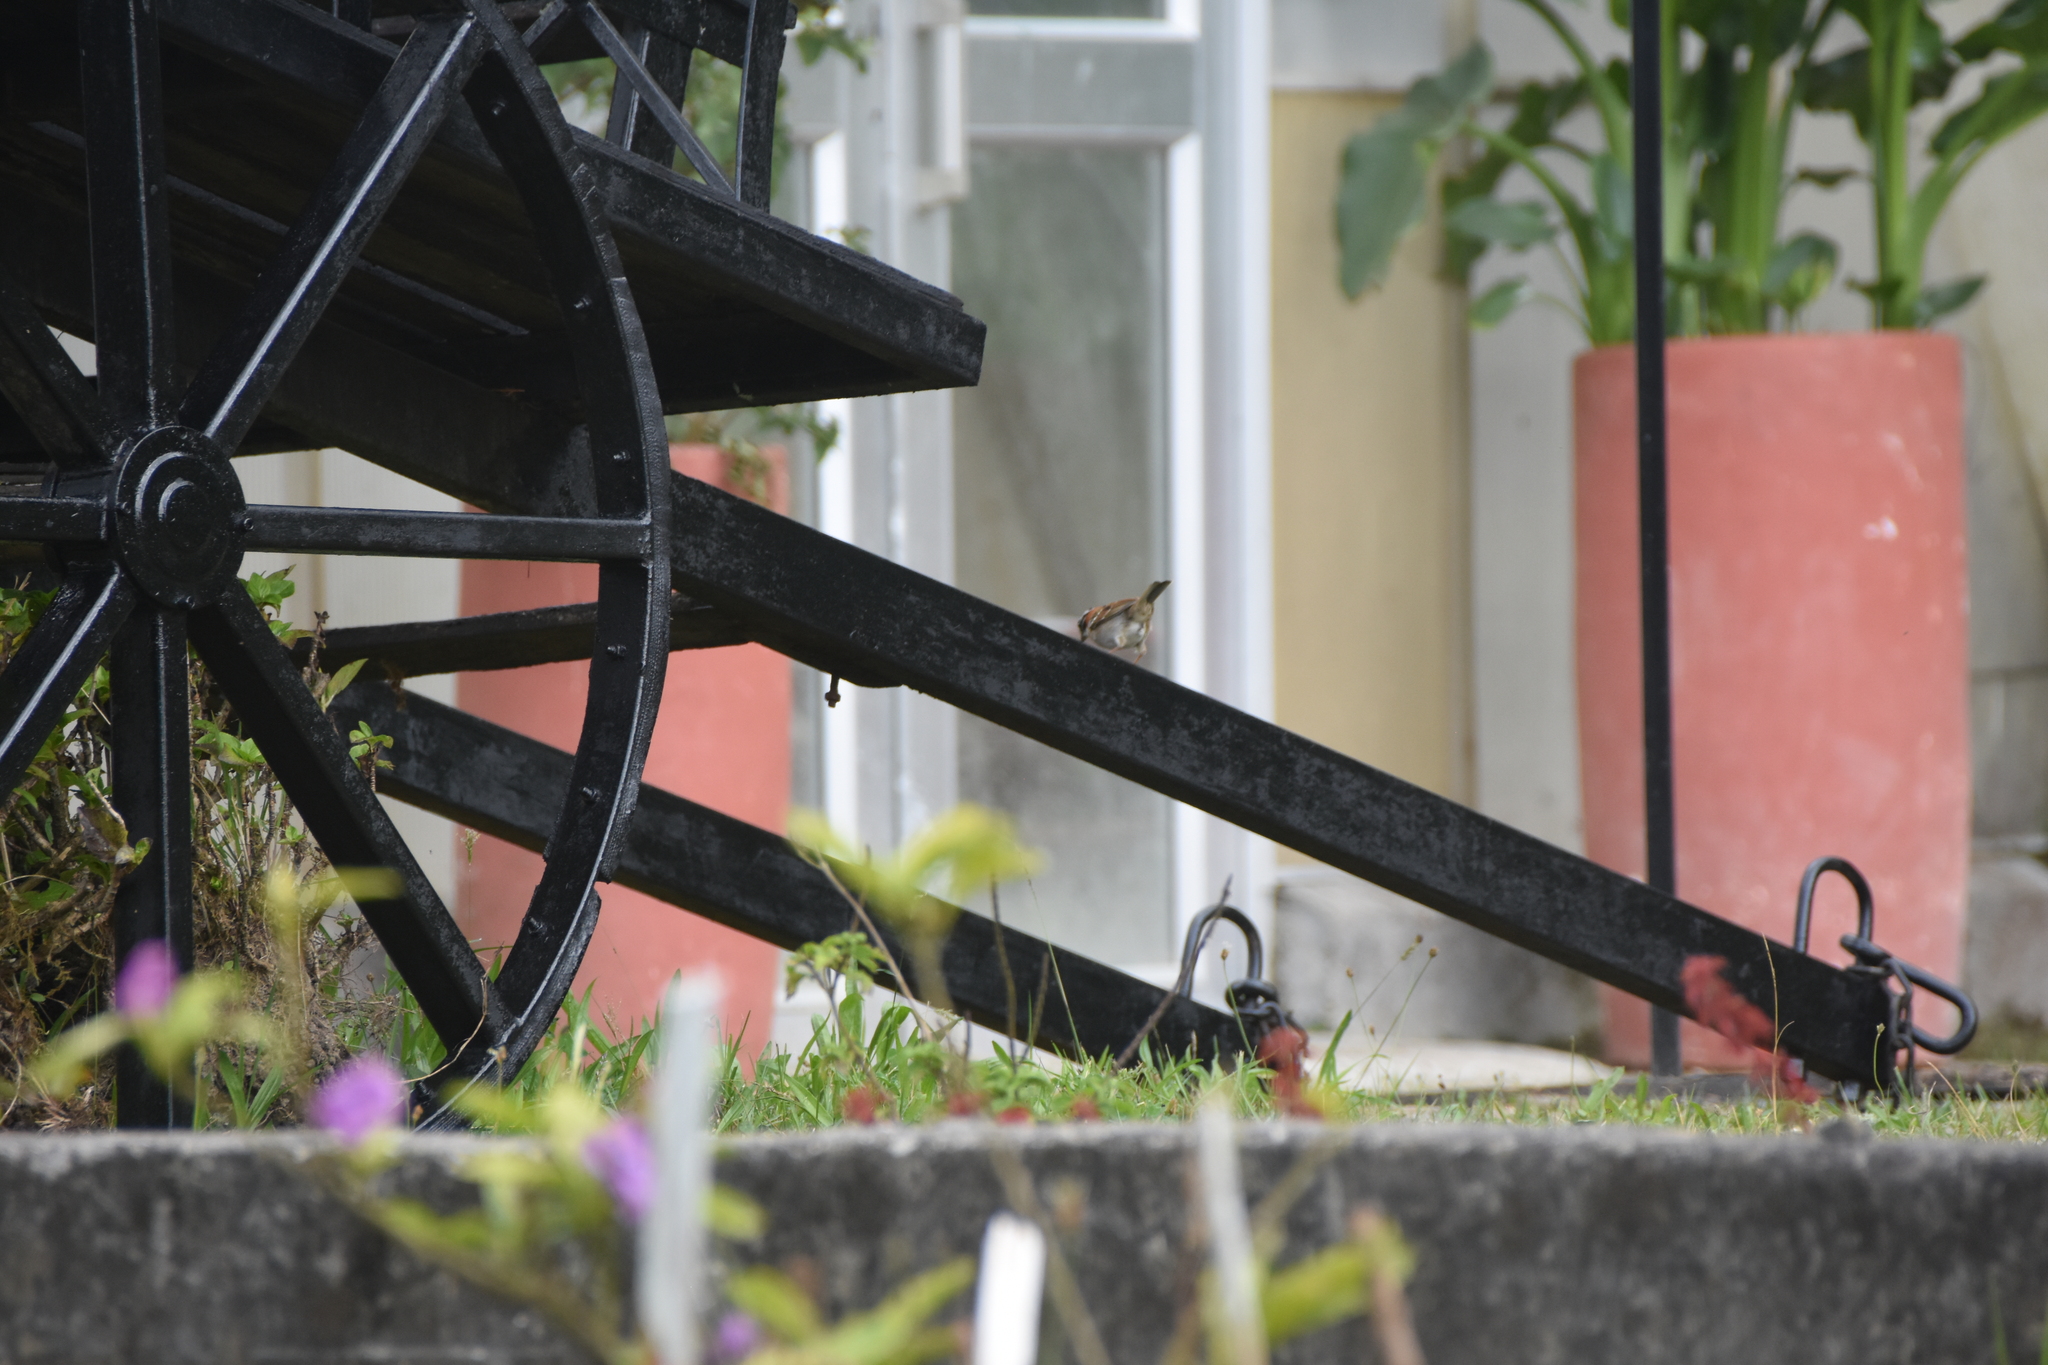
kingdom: Animalia
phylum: Chordata
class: Aves
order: Passeriformes
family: Passerellidae
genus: Zonotrichia
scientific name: Zonotrichia capensis
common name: Rufous-collared sparrow
